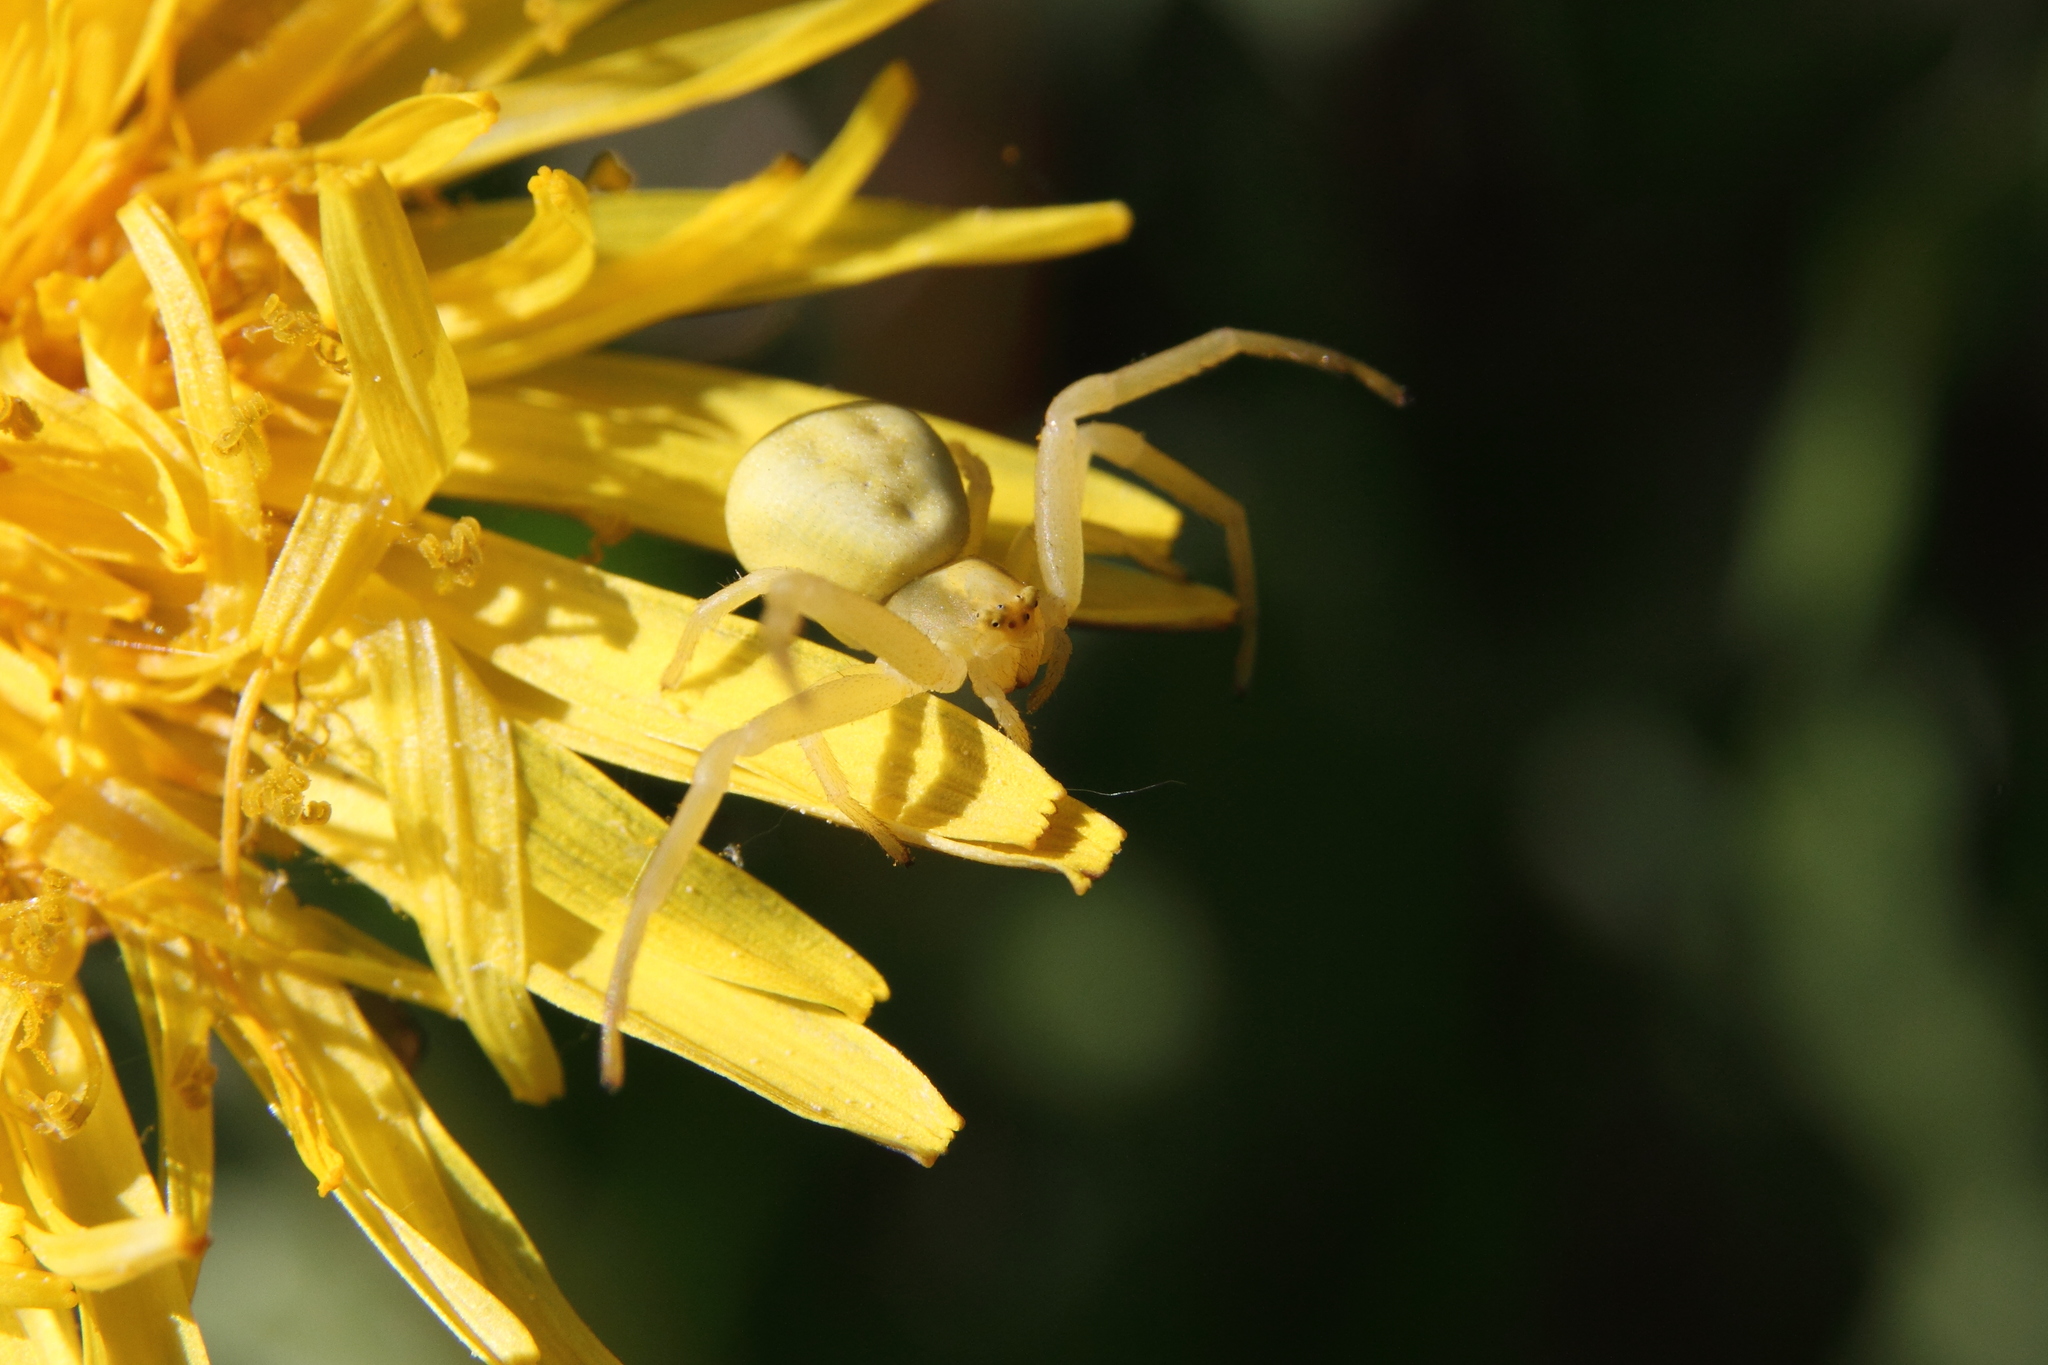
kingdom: Animalia
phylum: Arthropoda
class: Arachnida
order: Araneae
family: Thomisidae
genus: Misumena
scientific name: Misumena vatia
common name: Goldenrod crab spider
